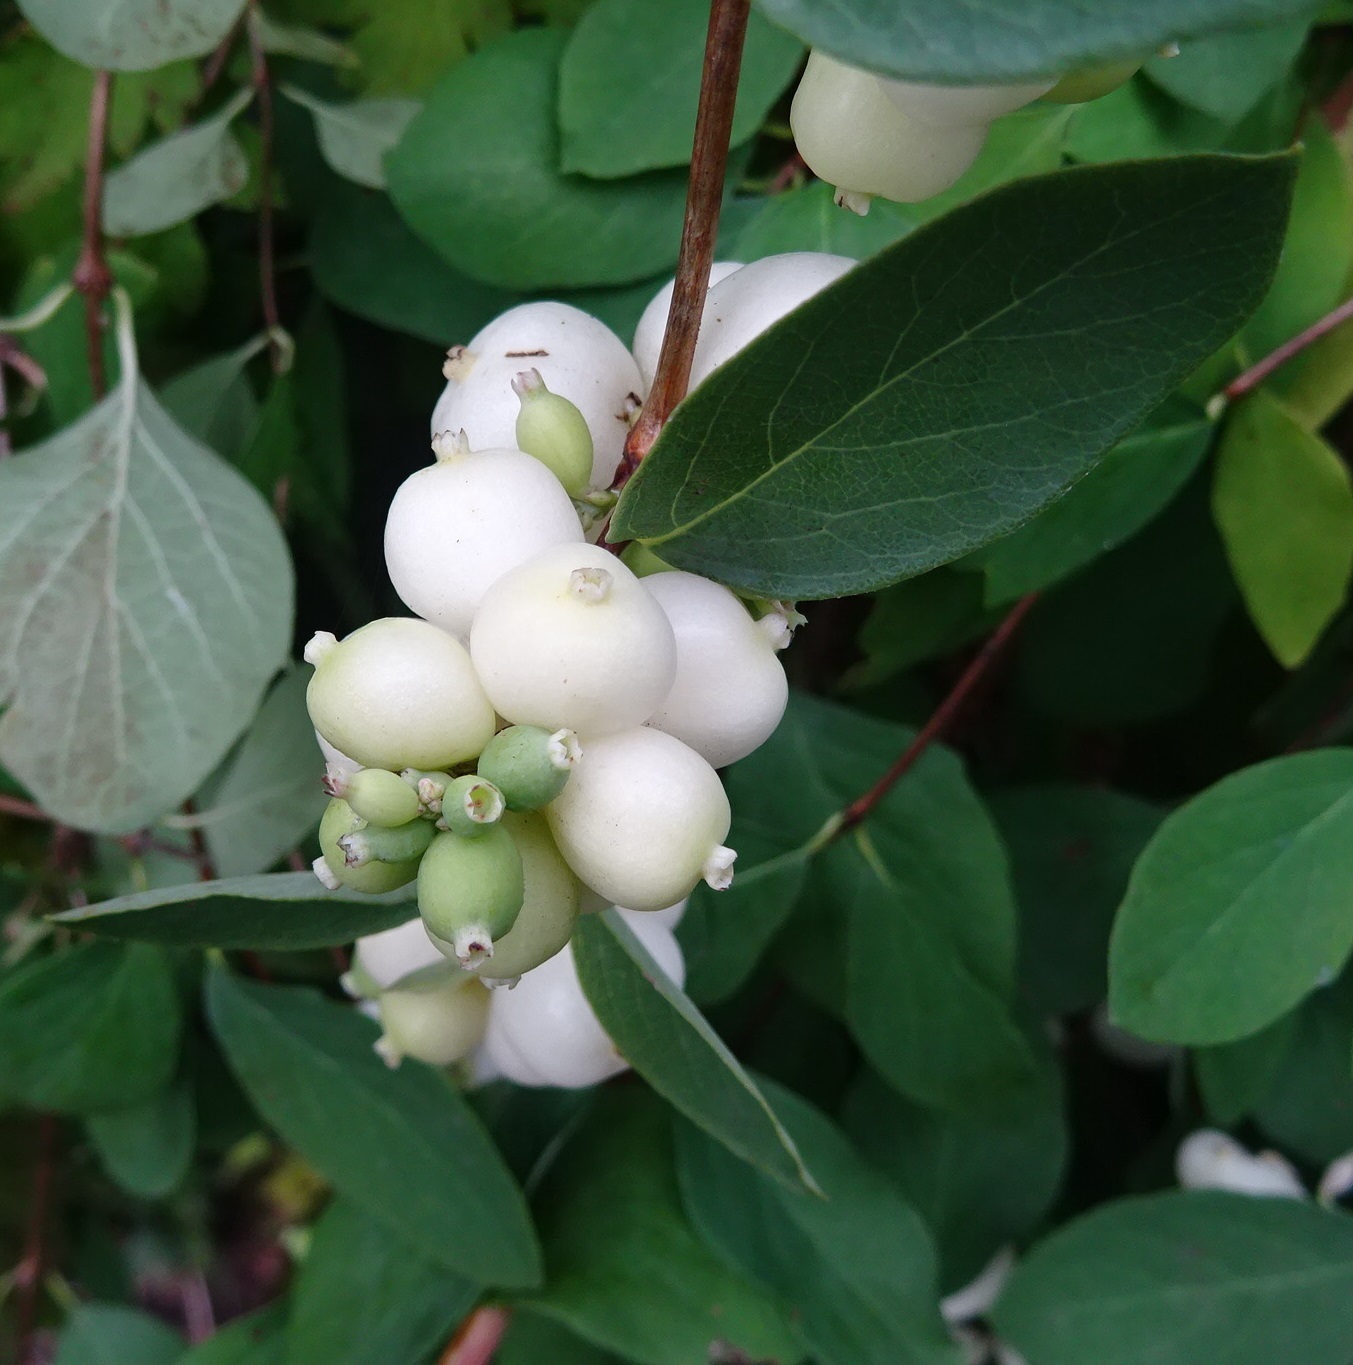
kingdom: Plantae
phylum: Tracheophyta
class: Magnoliopsida
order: Dipsacales
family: Caprifoliaceae
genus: Symphoricarpos
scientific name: Symphoricarpos albus
